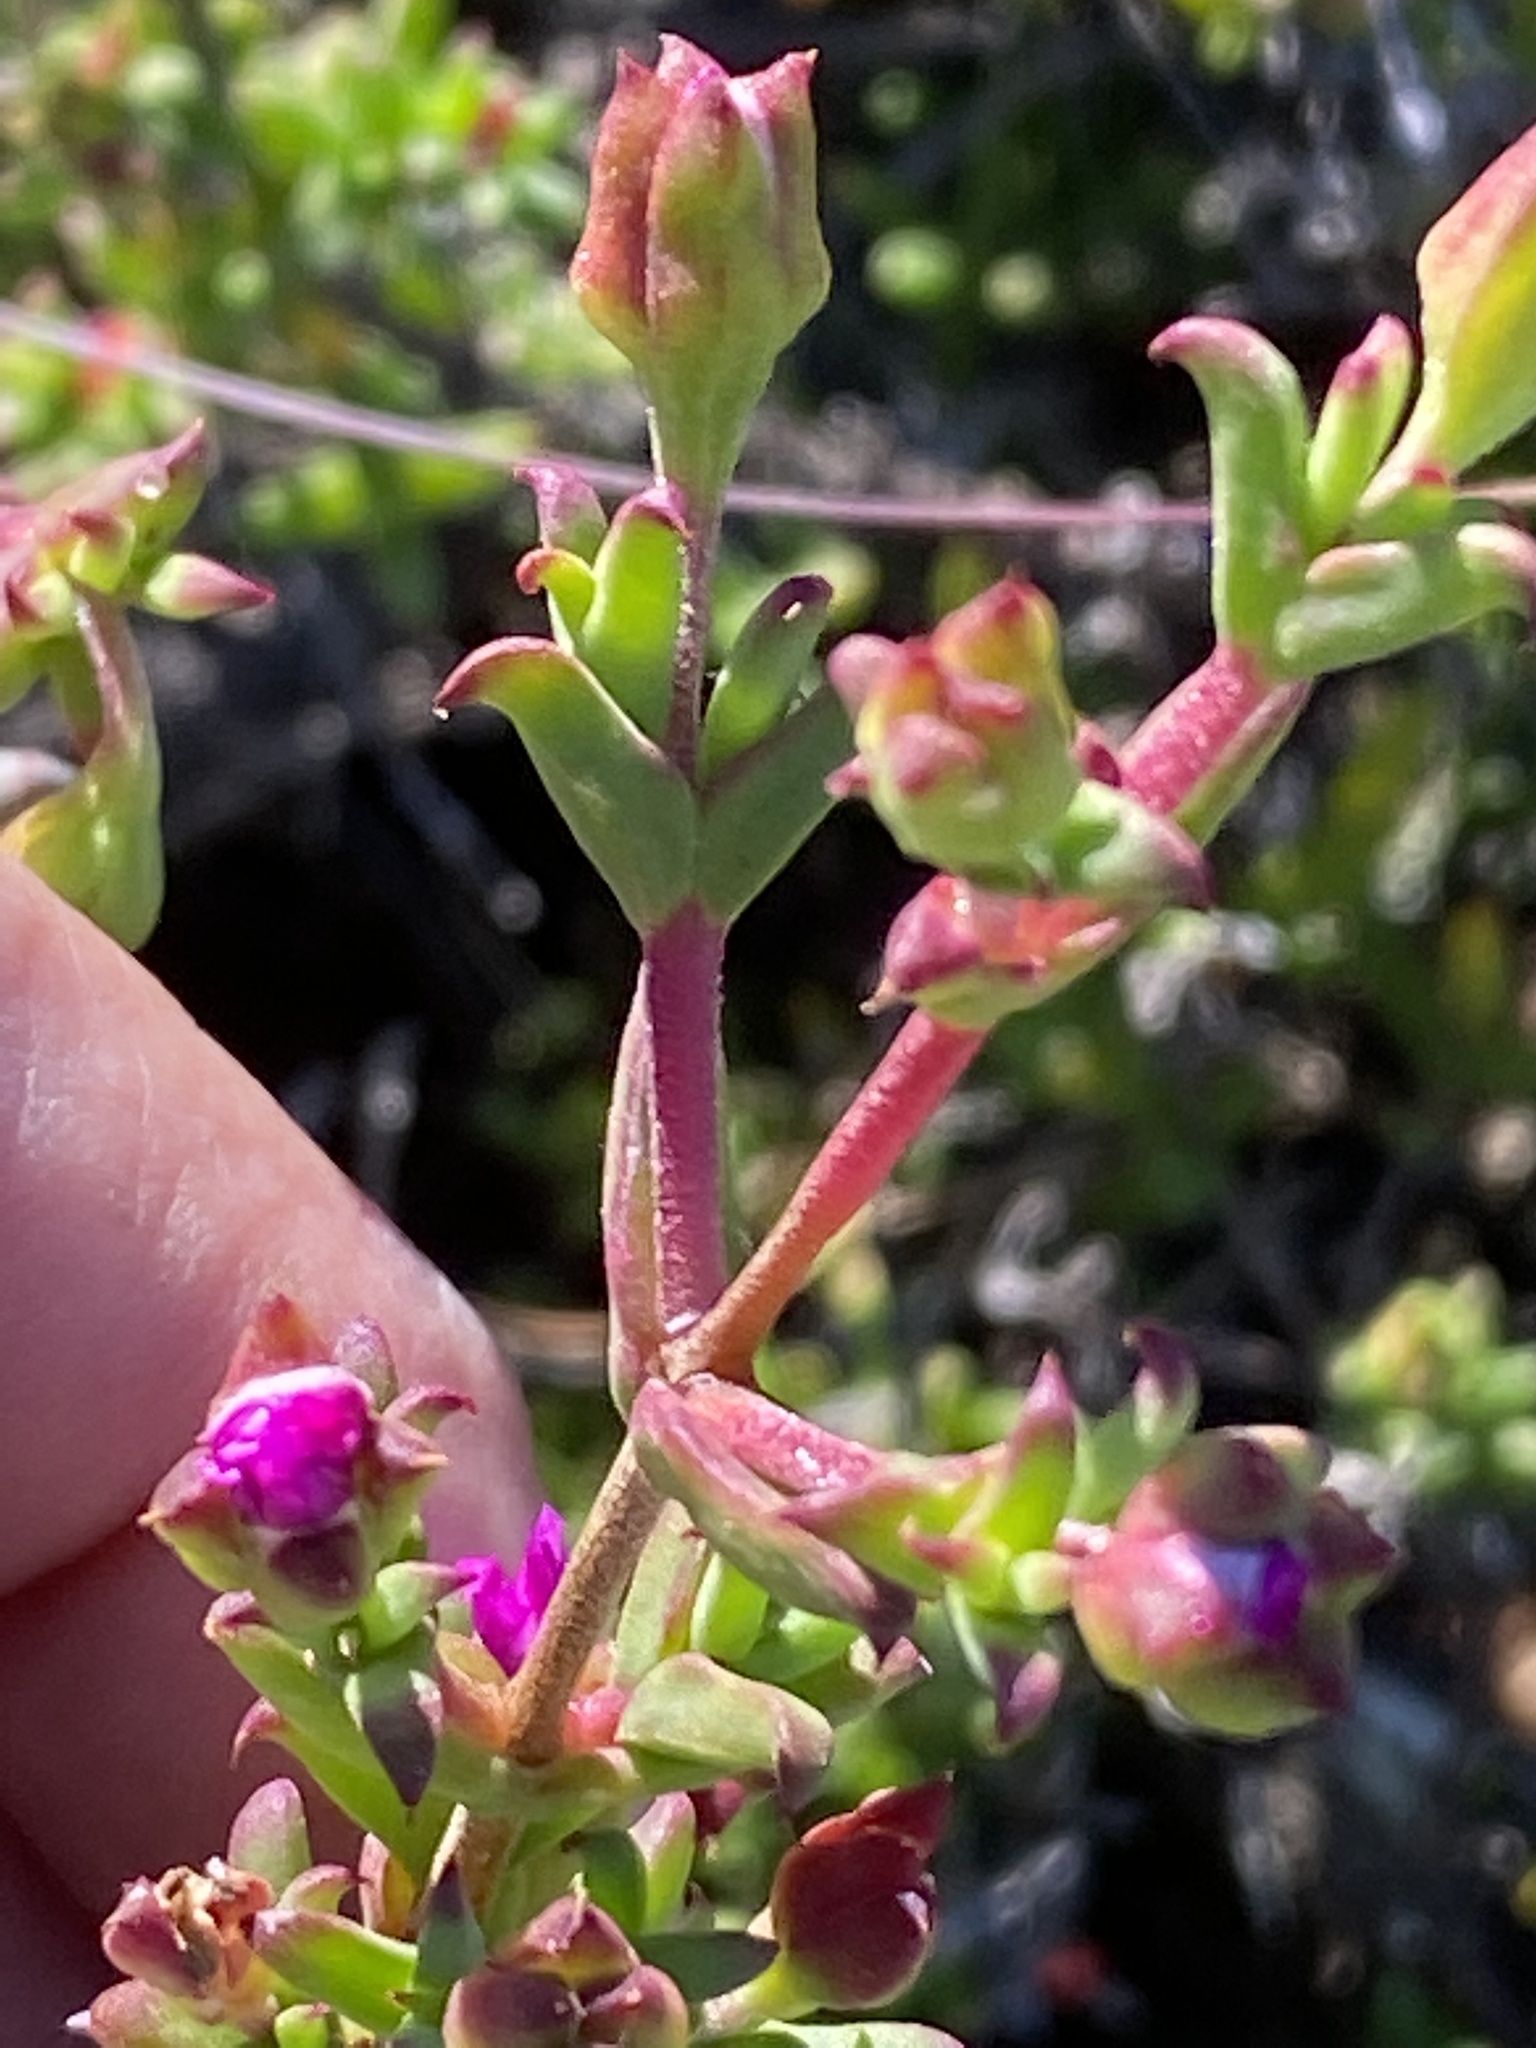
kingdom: Plantae
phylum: Tracheophyta
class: Magnoliopsida
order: Caryophyllales
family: Aizoaceae
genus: Delosperma
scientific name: Delosperma asperulum
